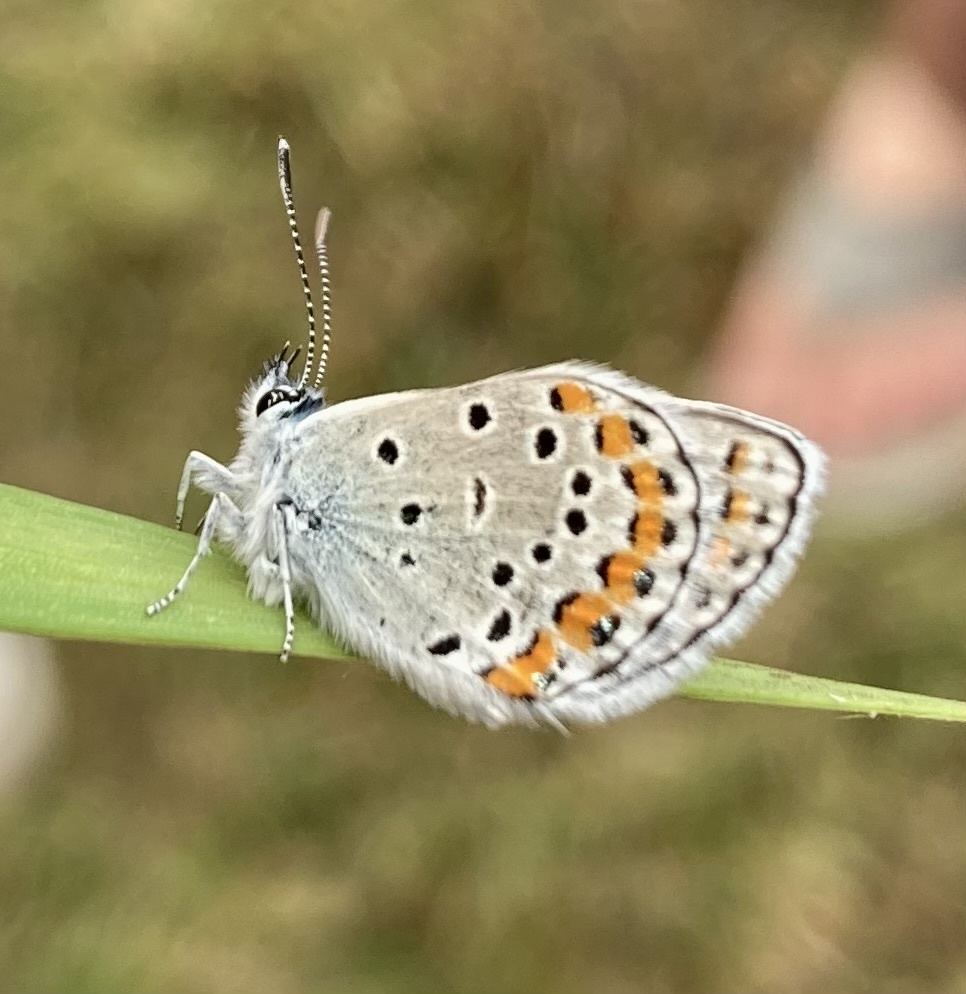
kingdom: Animalia
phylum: Arthropoda
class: Insecta
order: Lepidoptera
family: Lycaenidae
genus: Lycaeides
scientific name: Lycaeides melissa
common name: Melissa blue
